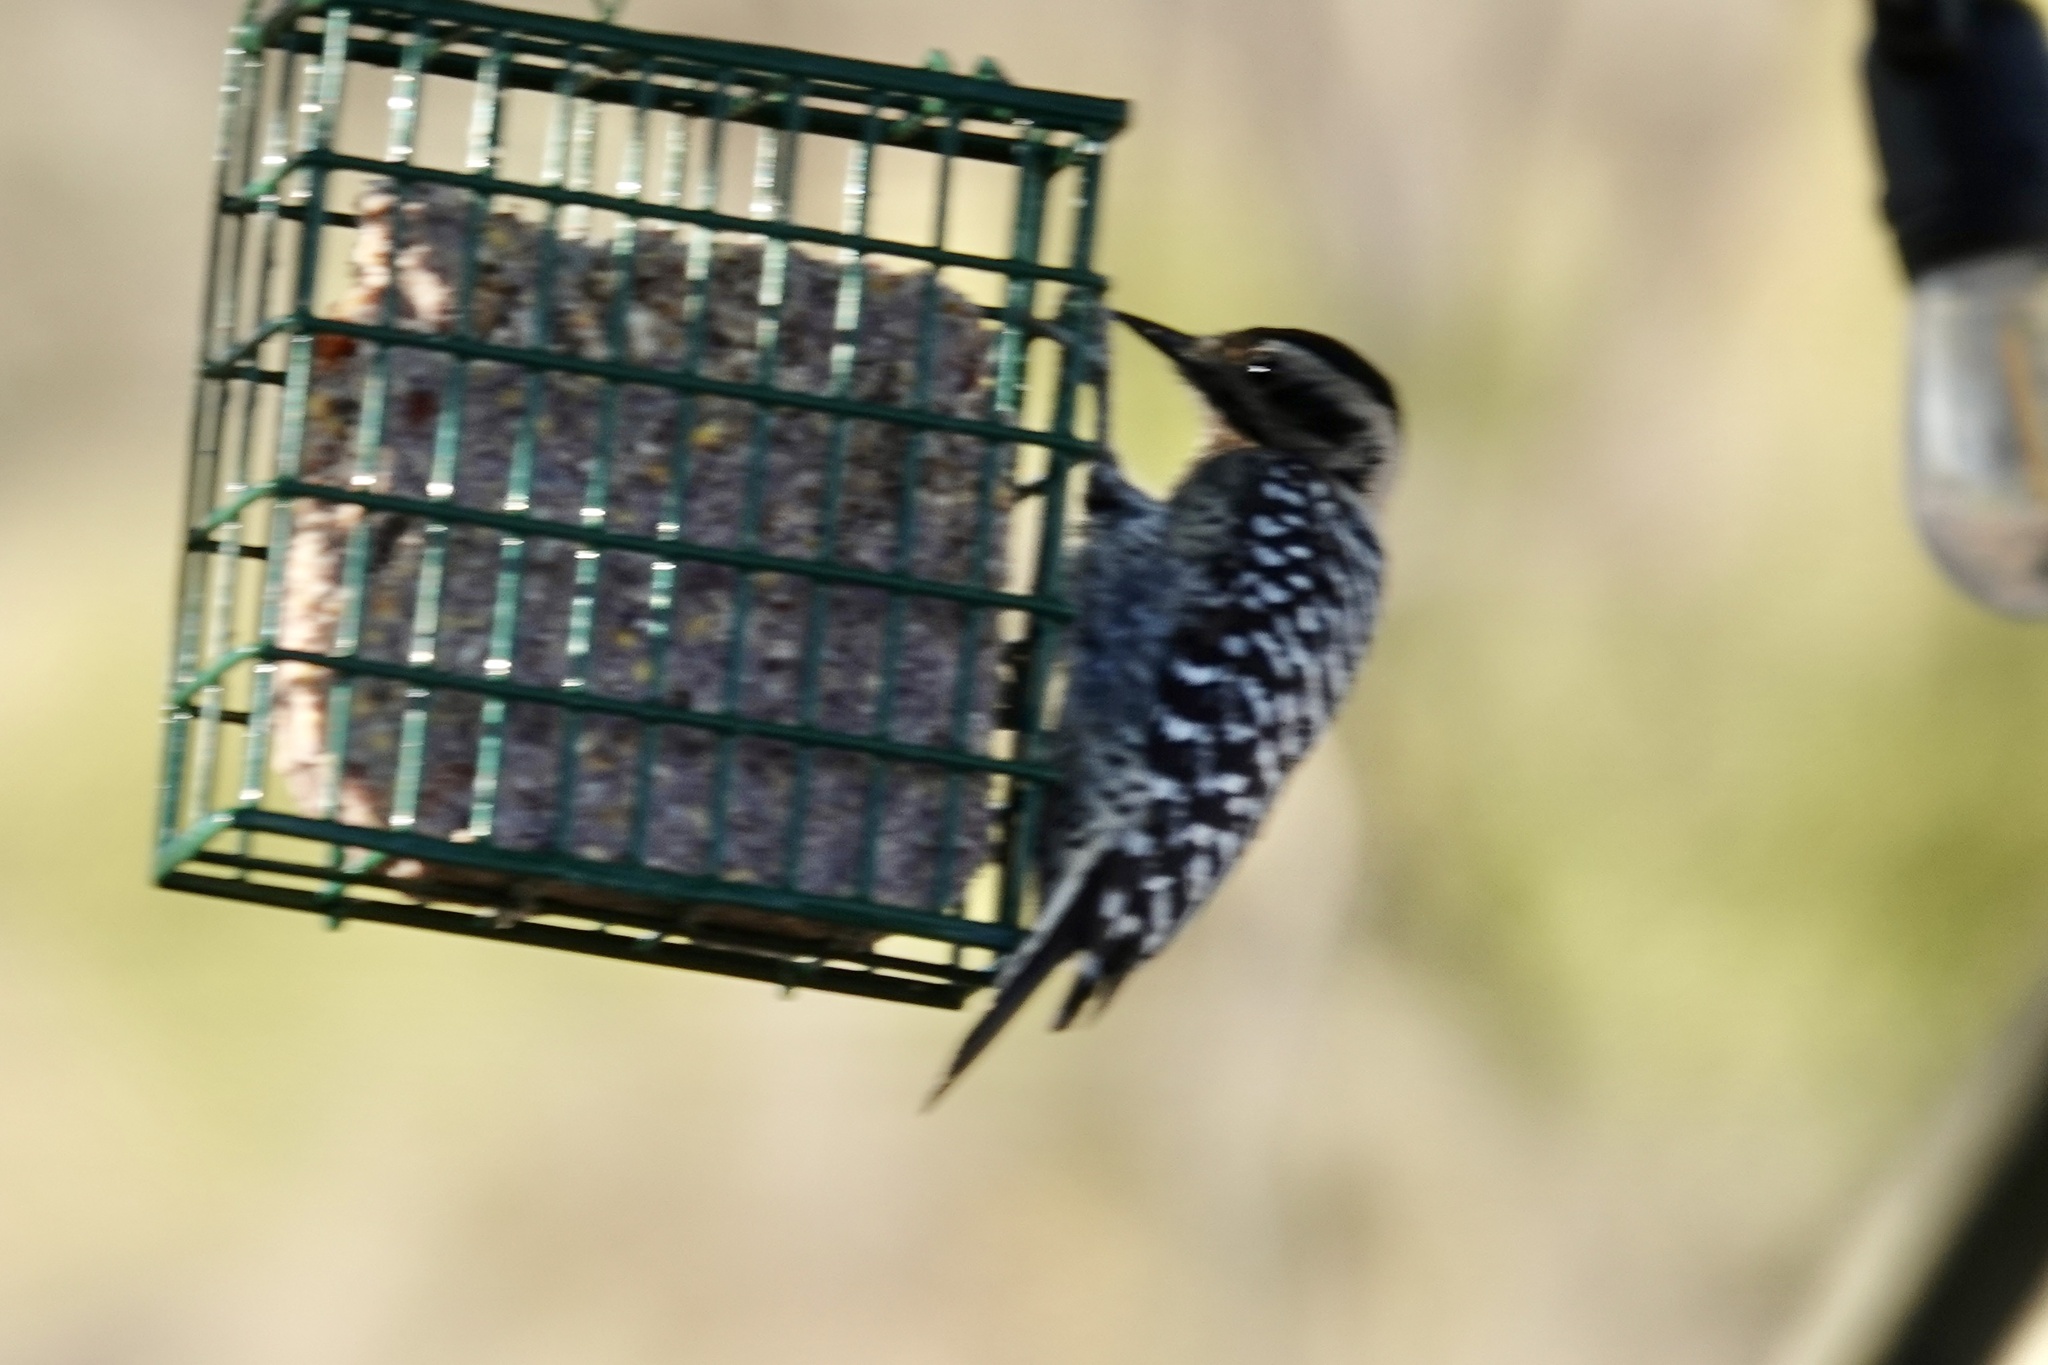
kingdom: Animalia
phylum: Chordata
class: Aves
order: Piciformes
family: Picidae
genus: Dryobates
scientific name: Dryobates scalaris
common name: Ladder-backed woodpecker
